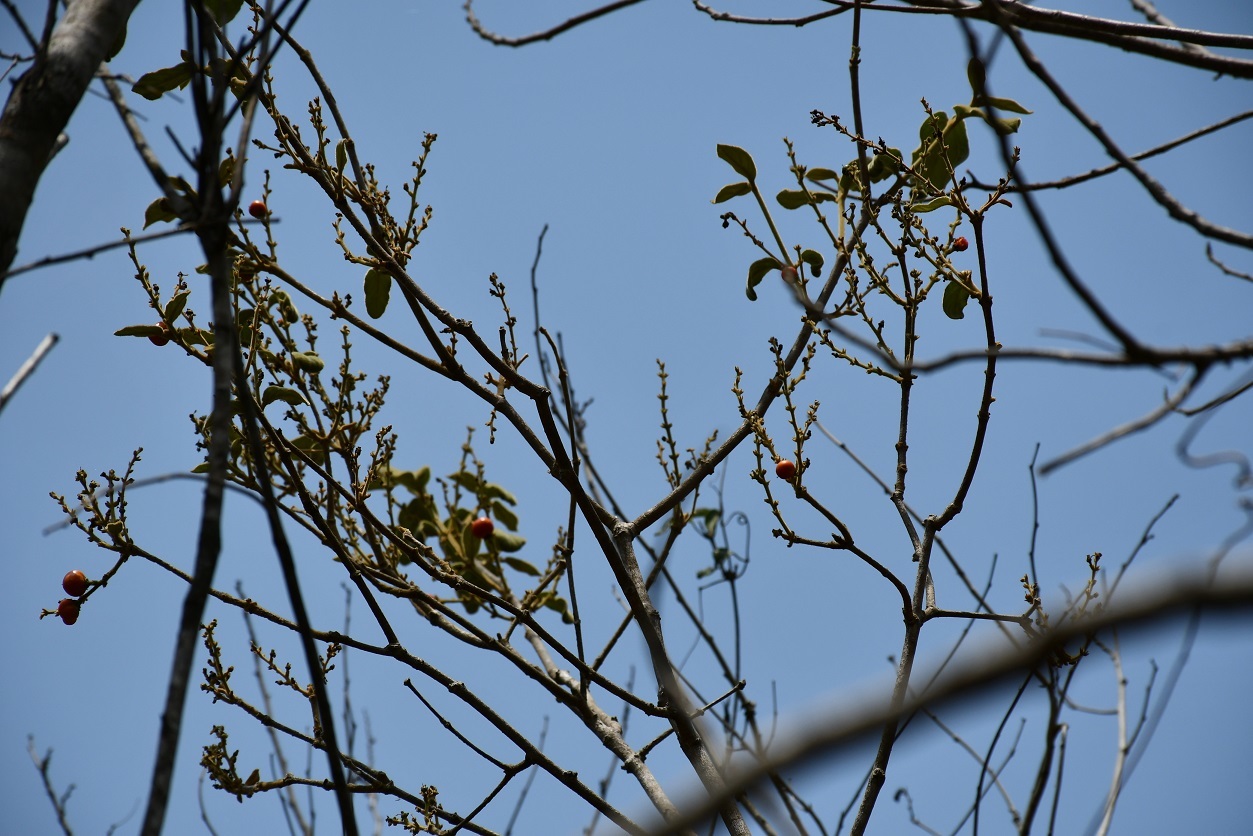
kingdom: Plantae
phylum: Tracheophyta
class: Magnoliopsida
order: Malpighiales
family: Malpighiaceae
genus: Bunchosia
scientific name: Bunchosia montana
